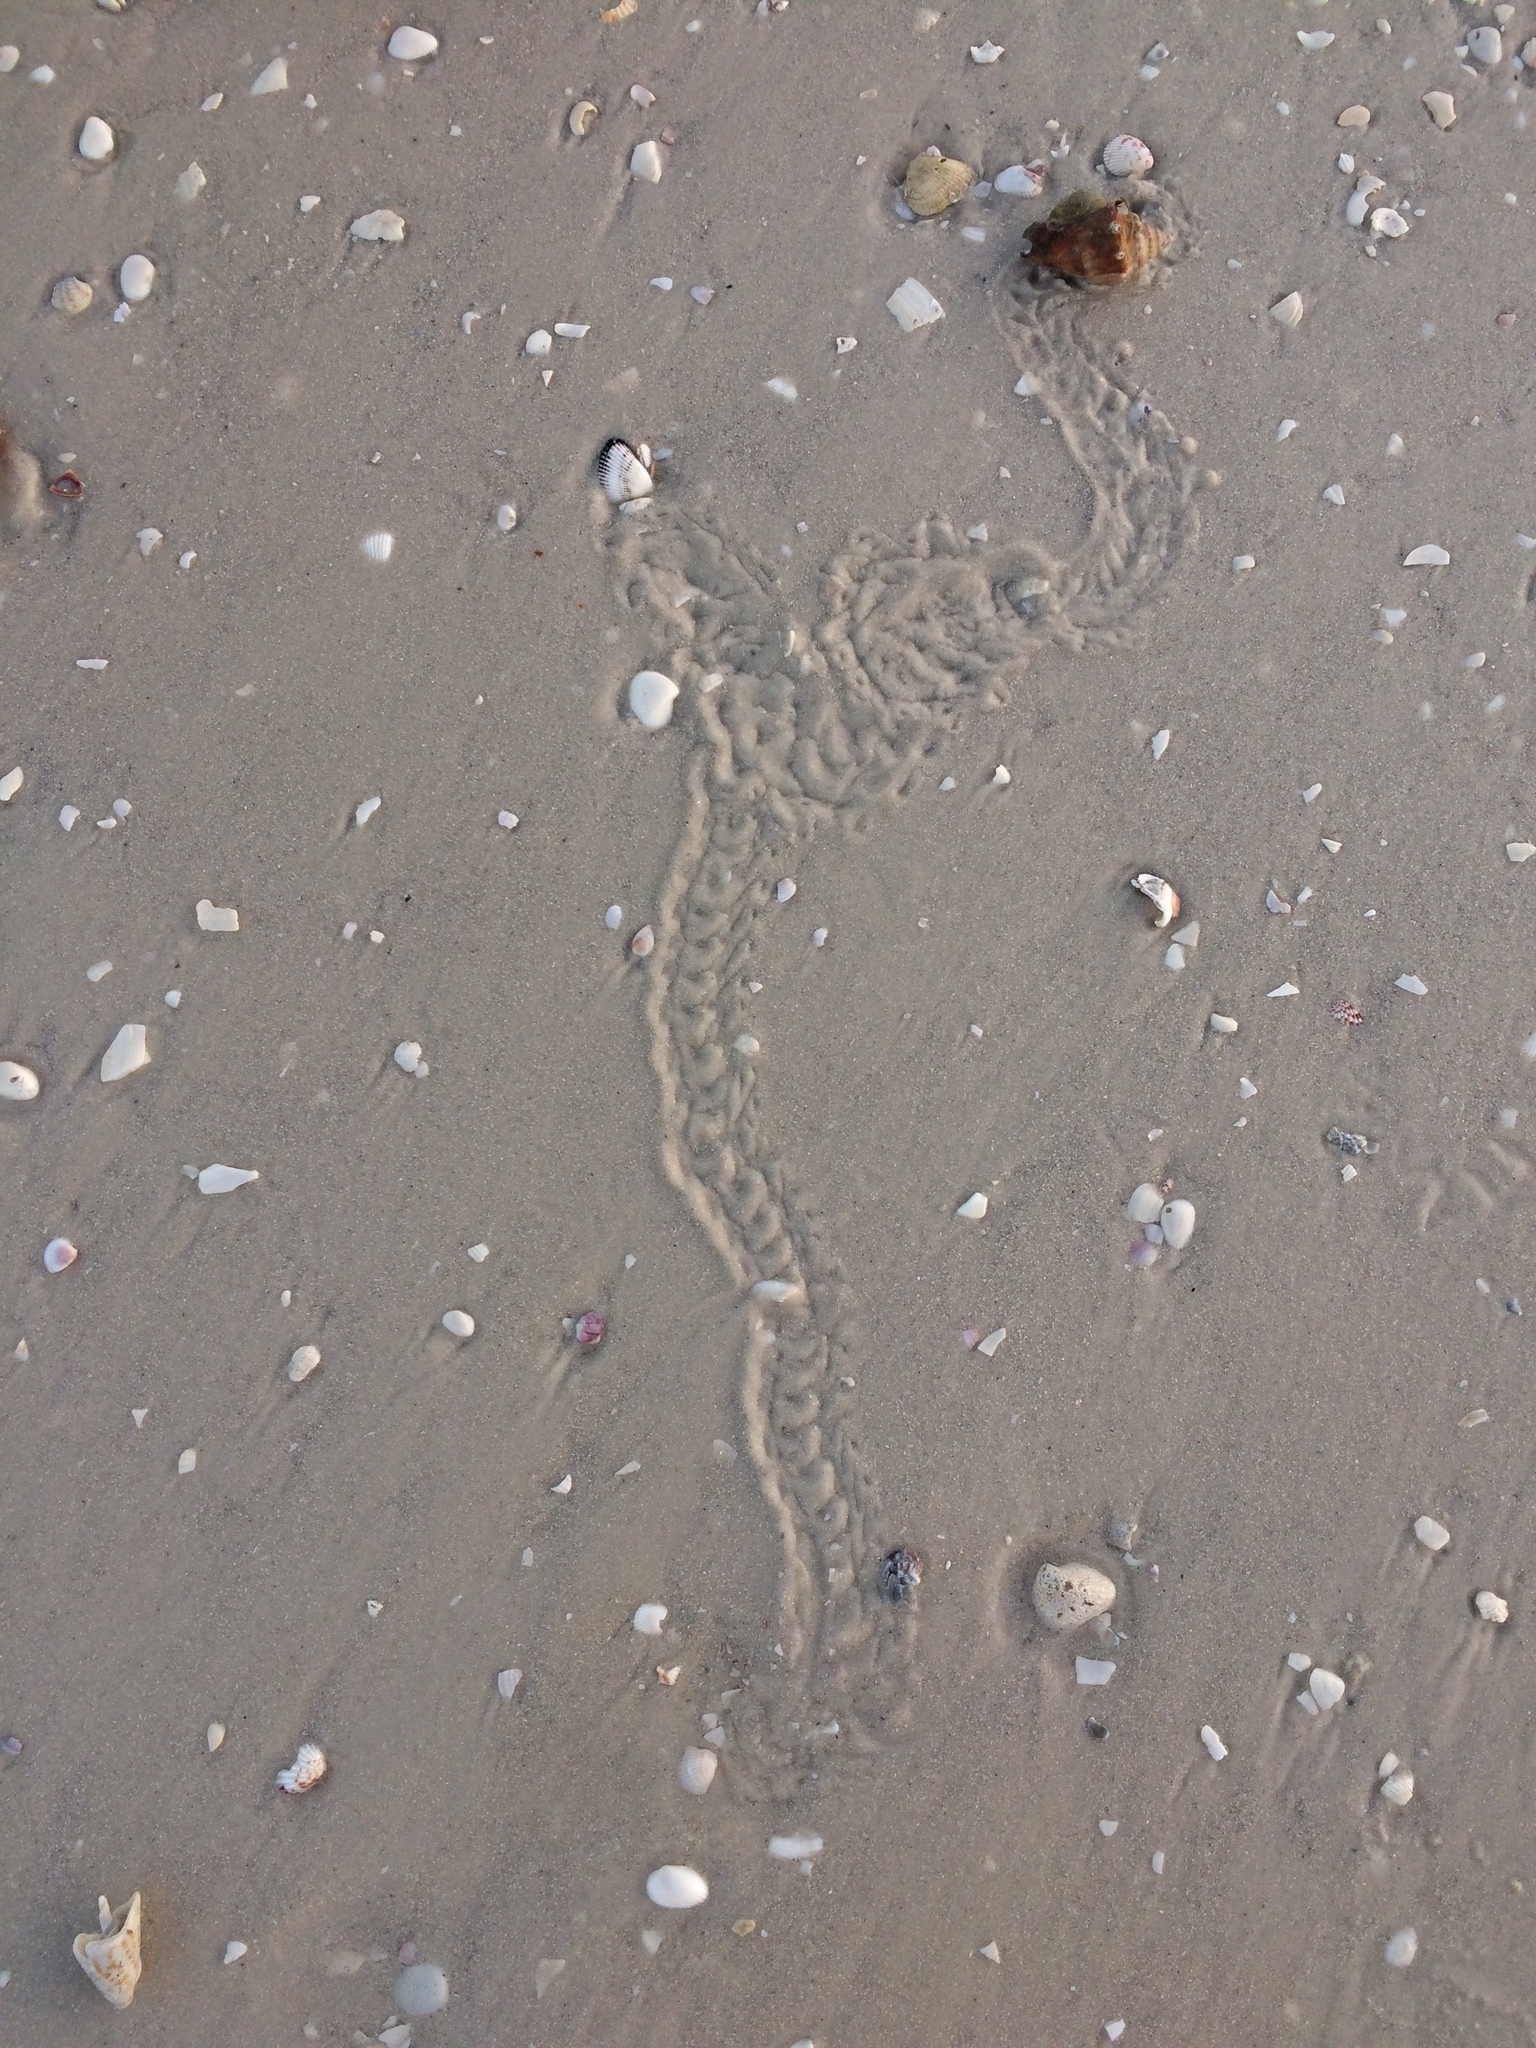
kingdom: Animalia
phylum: Mollusca
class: Gastropoda
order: Littorinimorpha
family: Strombidae
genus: Strombus
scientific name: Strombus alatus
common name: Florida fighting conch
